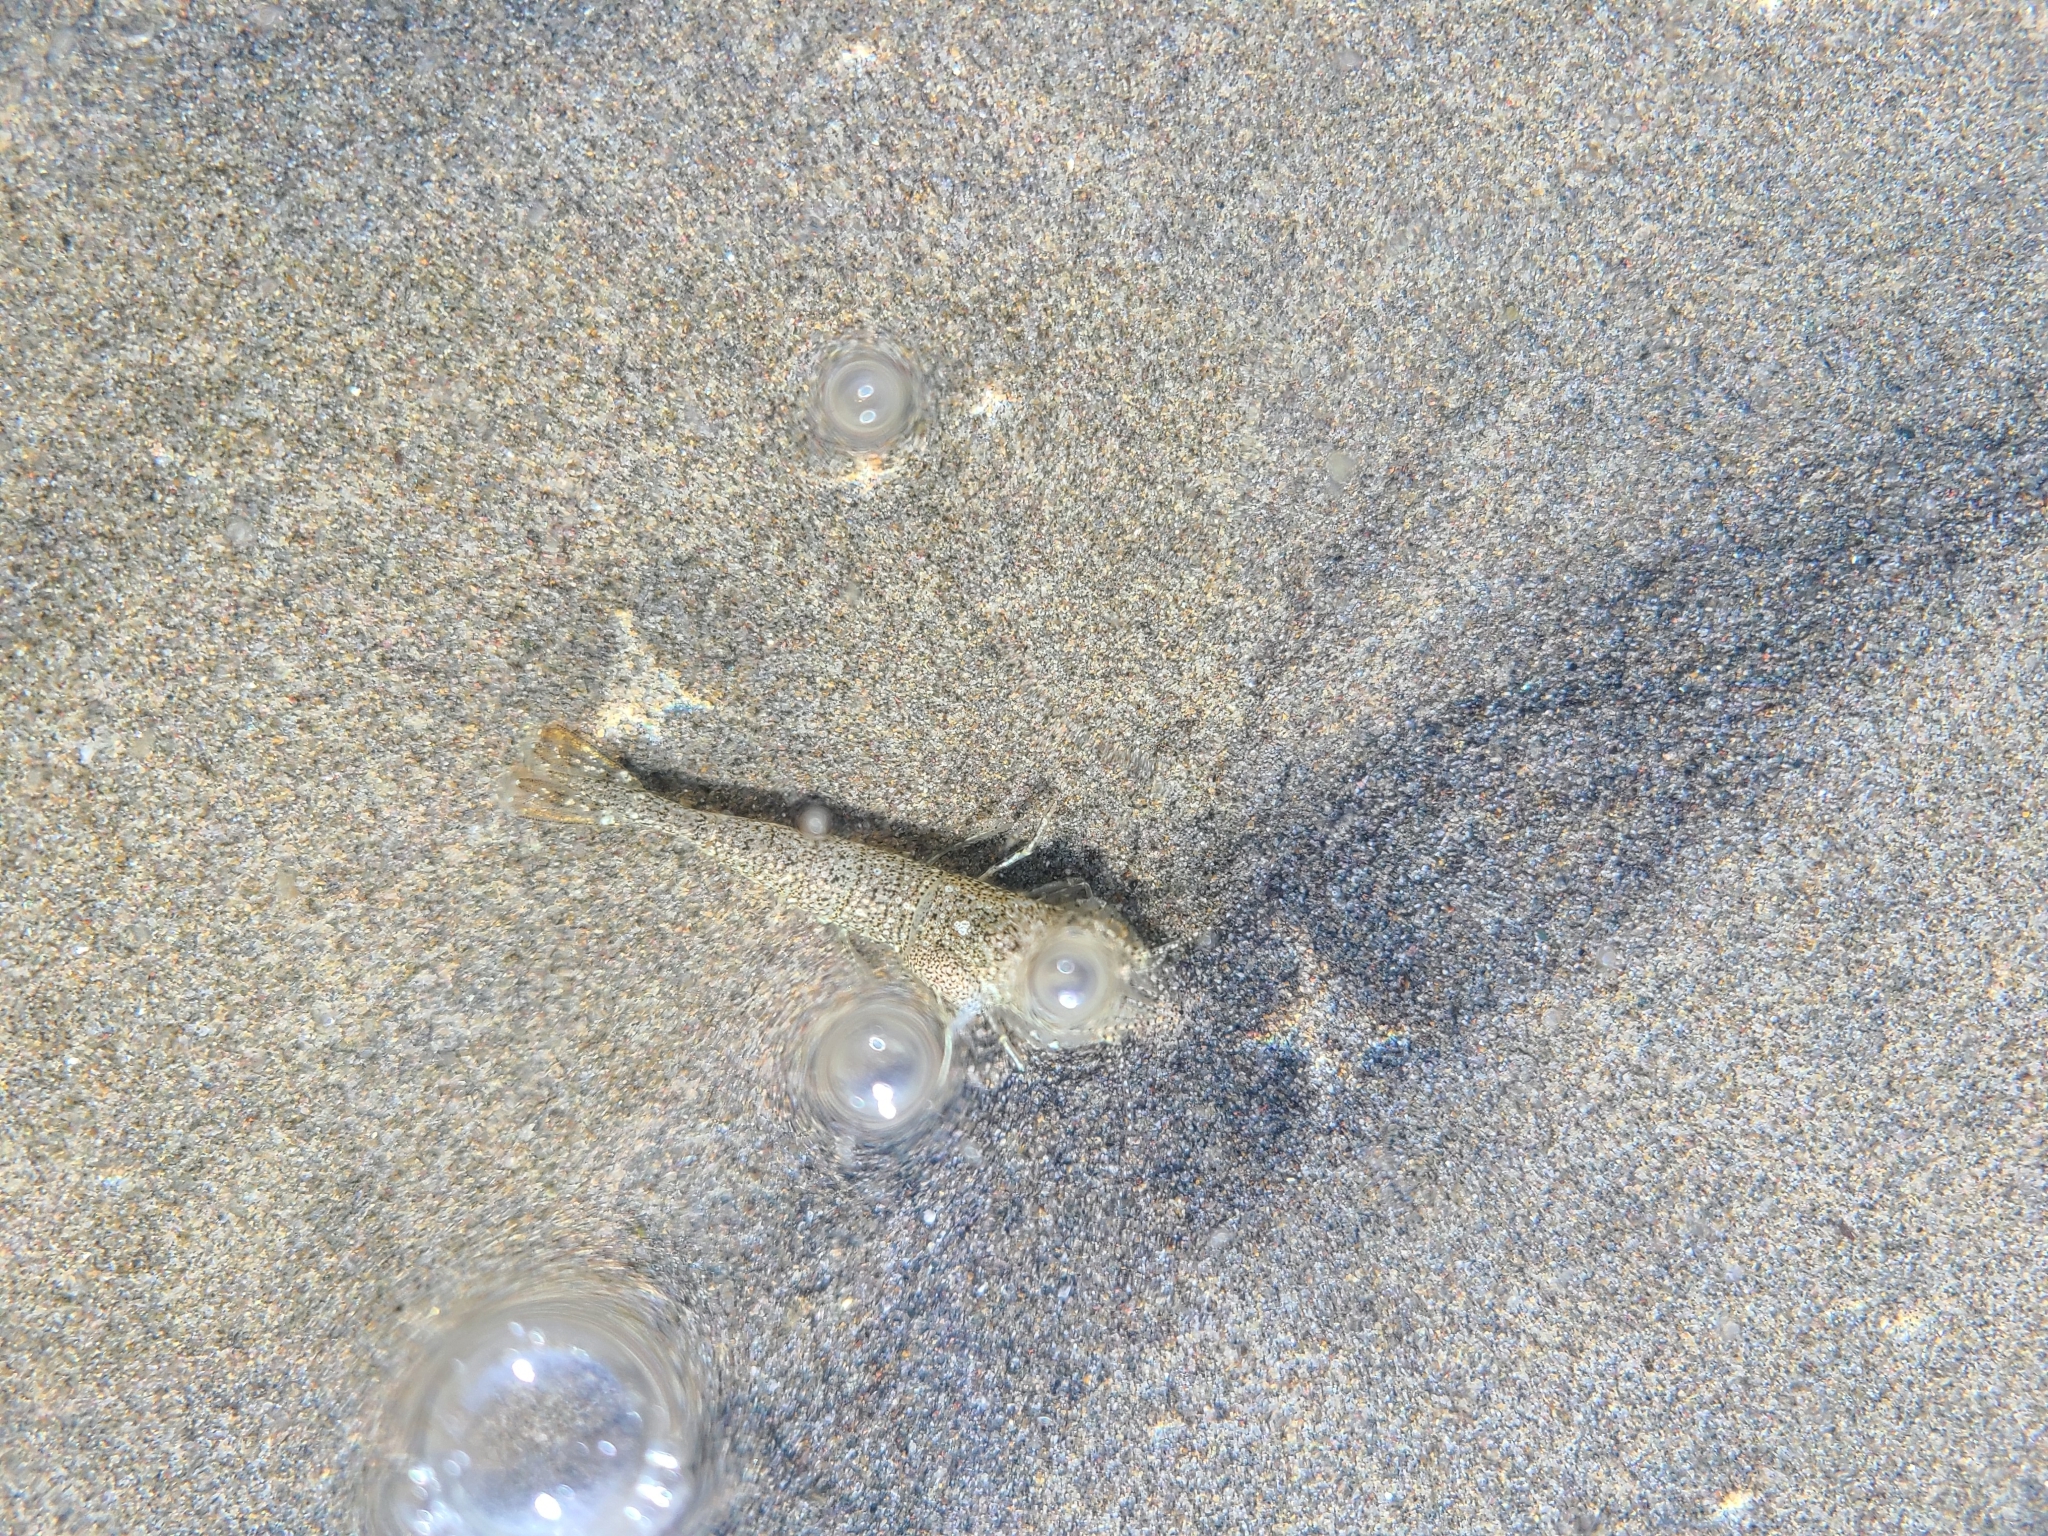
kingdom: Animalia
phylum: Arthropoda
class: Malacostraca
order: Decapoda
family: Crangonidae
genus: Lissocrangon
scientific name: Lissocrangon stylirostris
